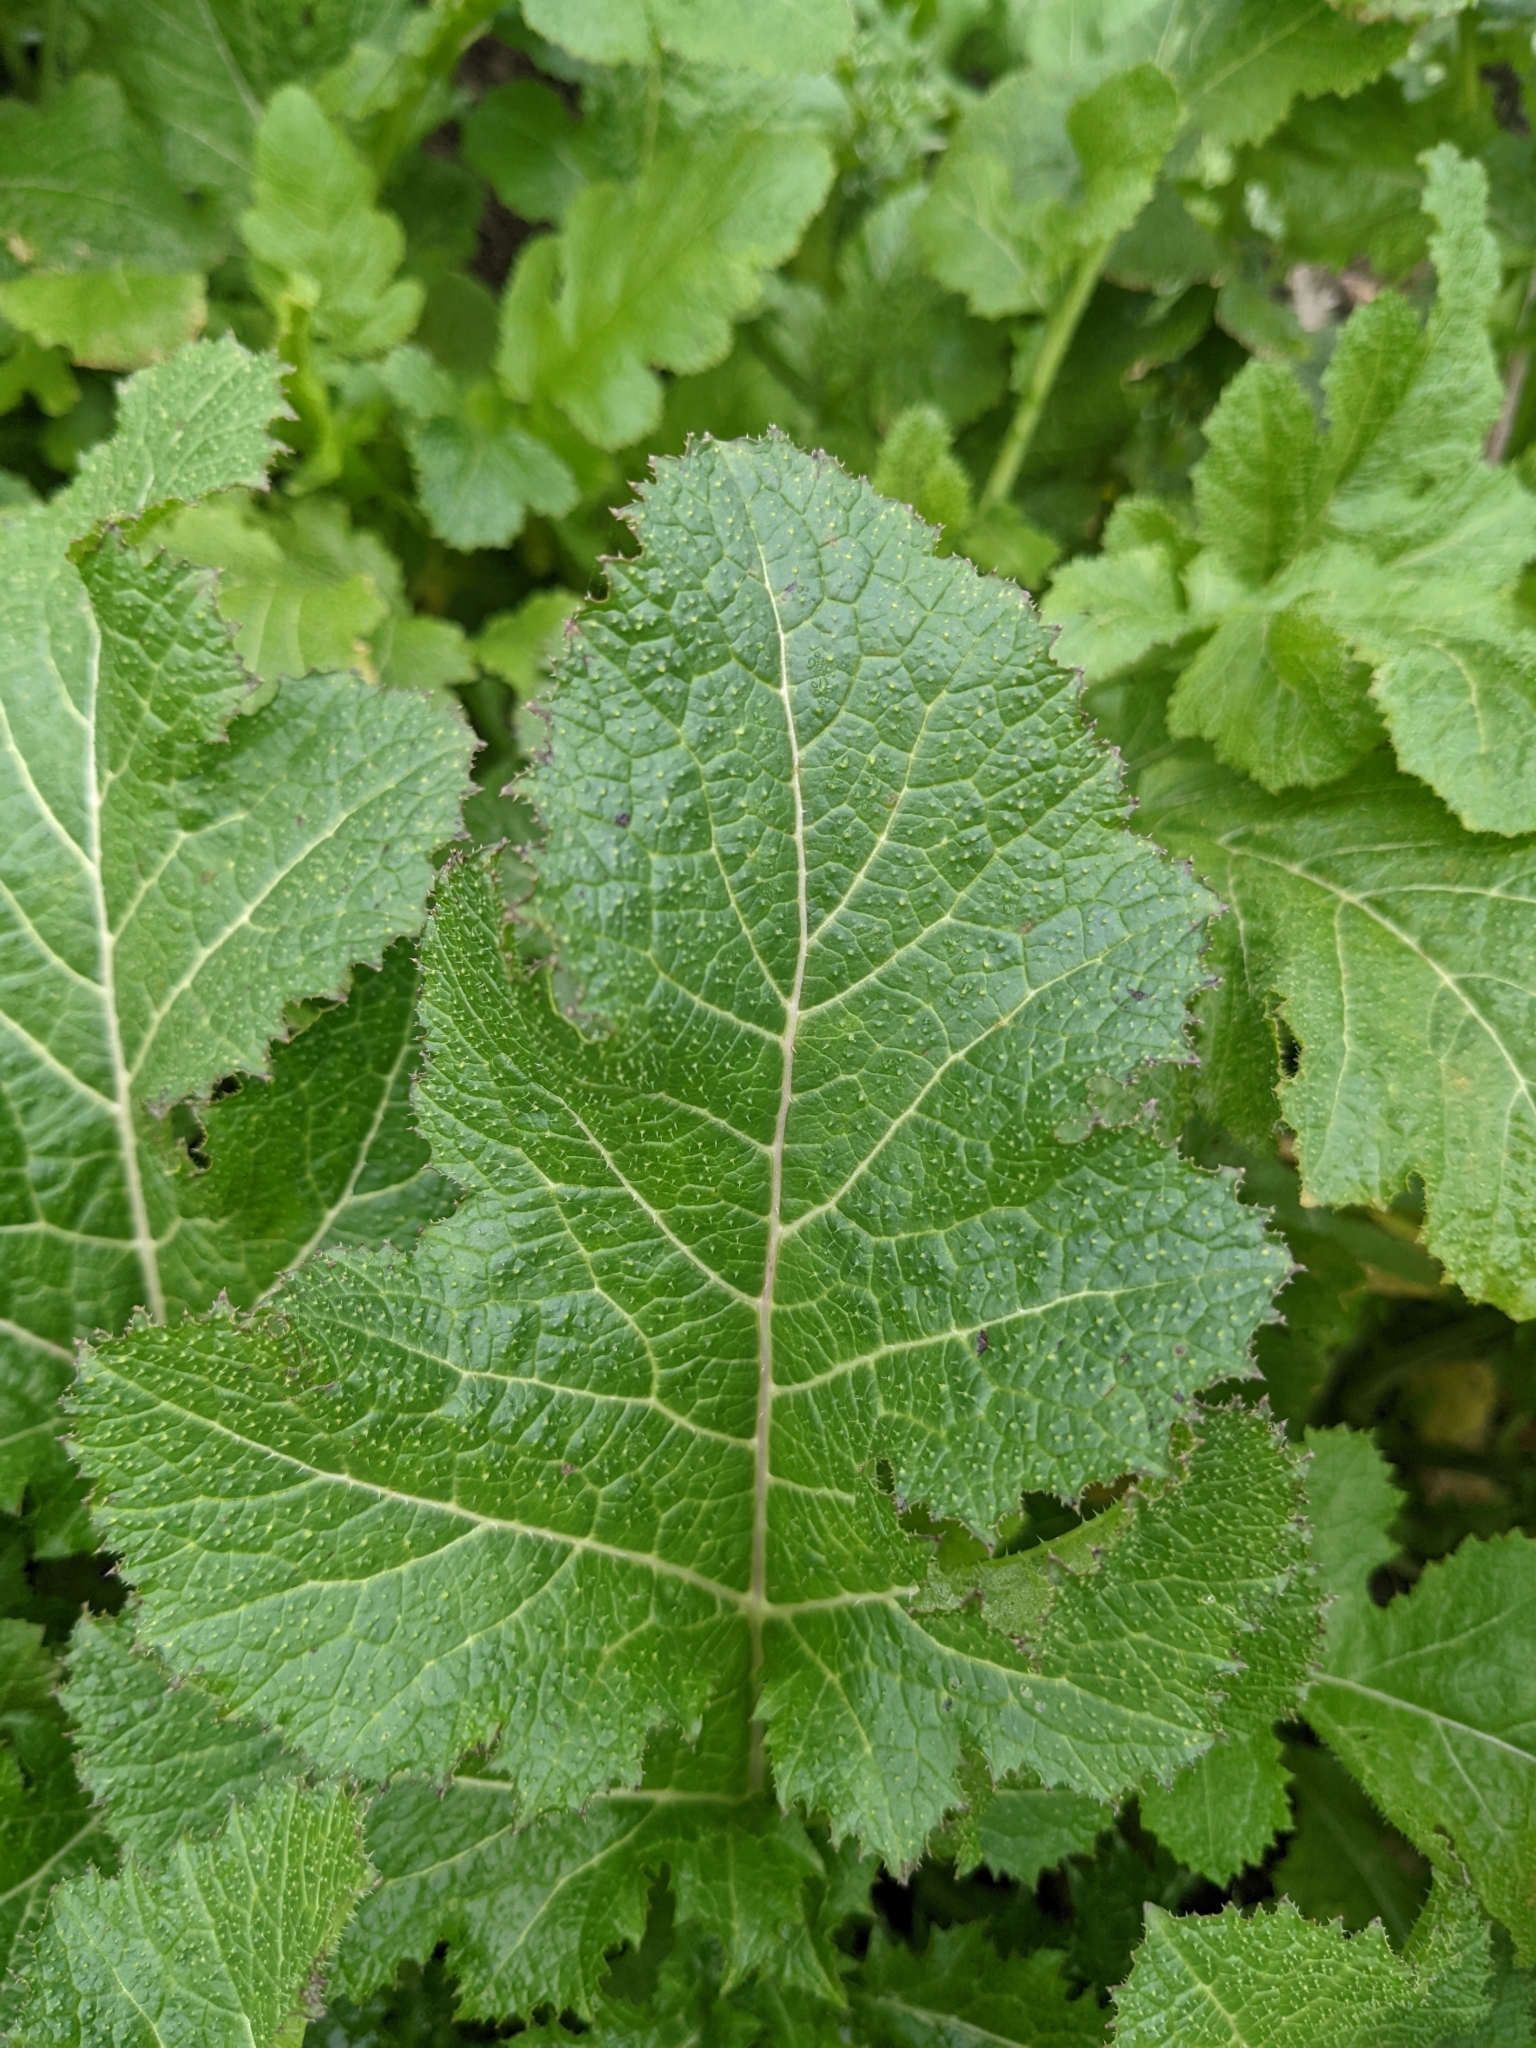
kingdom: Plantae
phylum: Tracheophyta
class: Magnoliopsida
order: Brassicales
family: Brassicaceae
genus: Brassica
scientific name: Brassica nigra
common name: Black mustard
